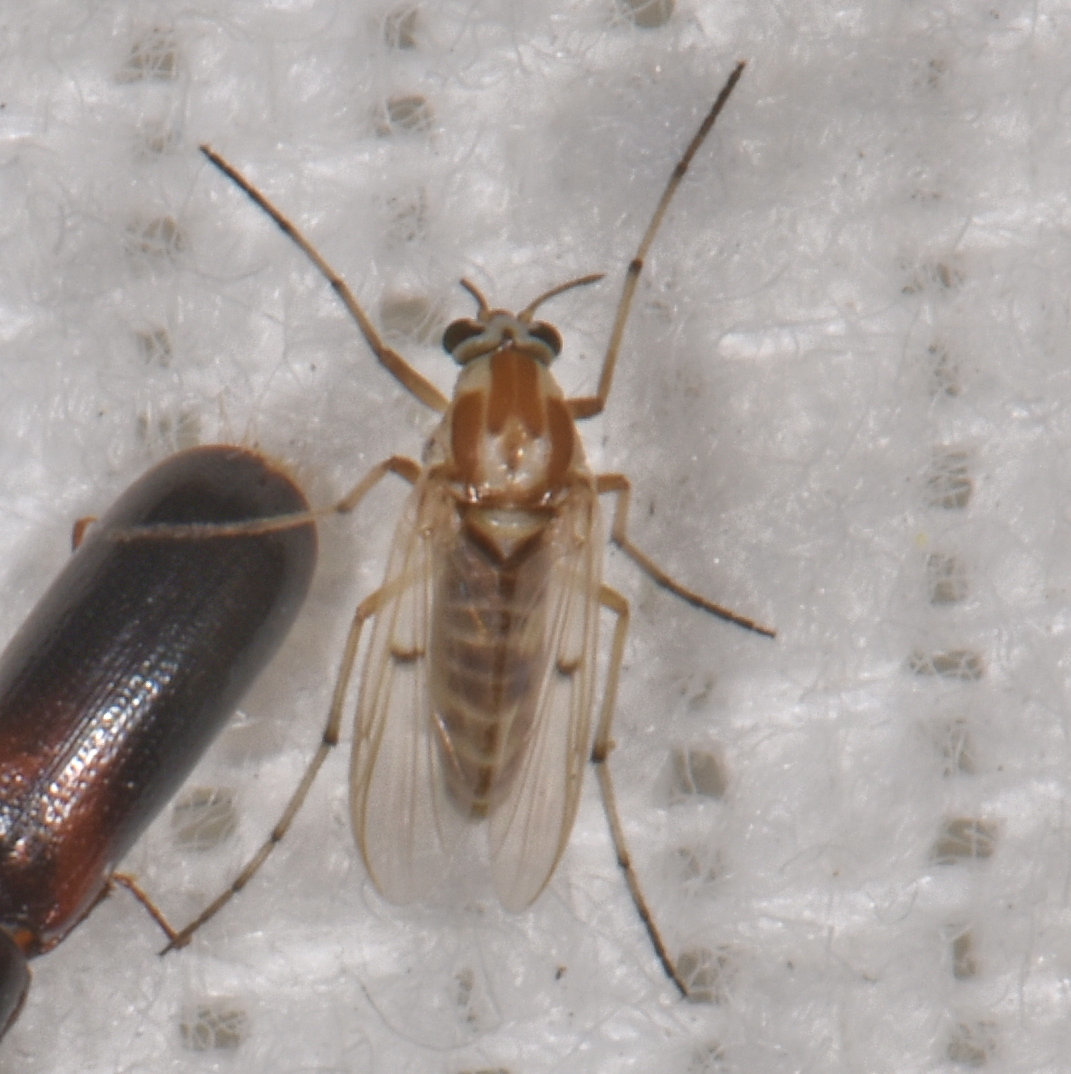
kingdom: Animalia
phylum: Arthropoda
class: Insecta
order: Diptera
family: Chironomidae
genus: Procladius
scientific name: Procladius bellus
